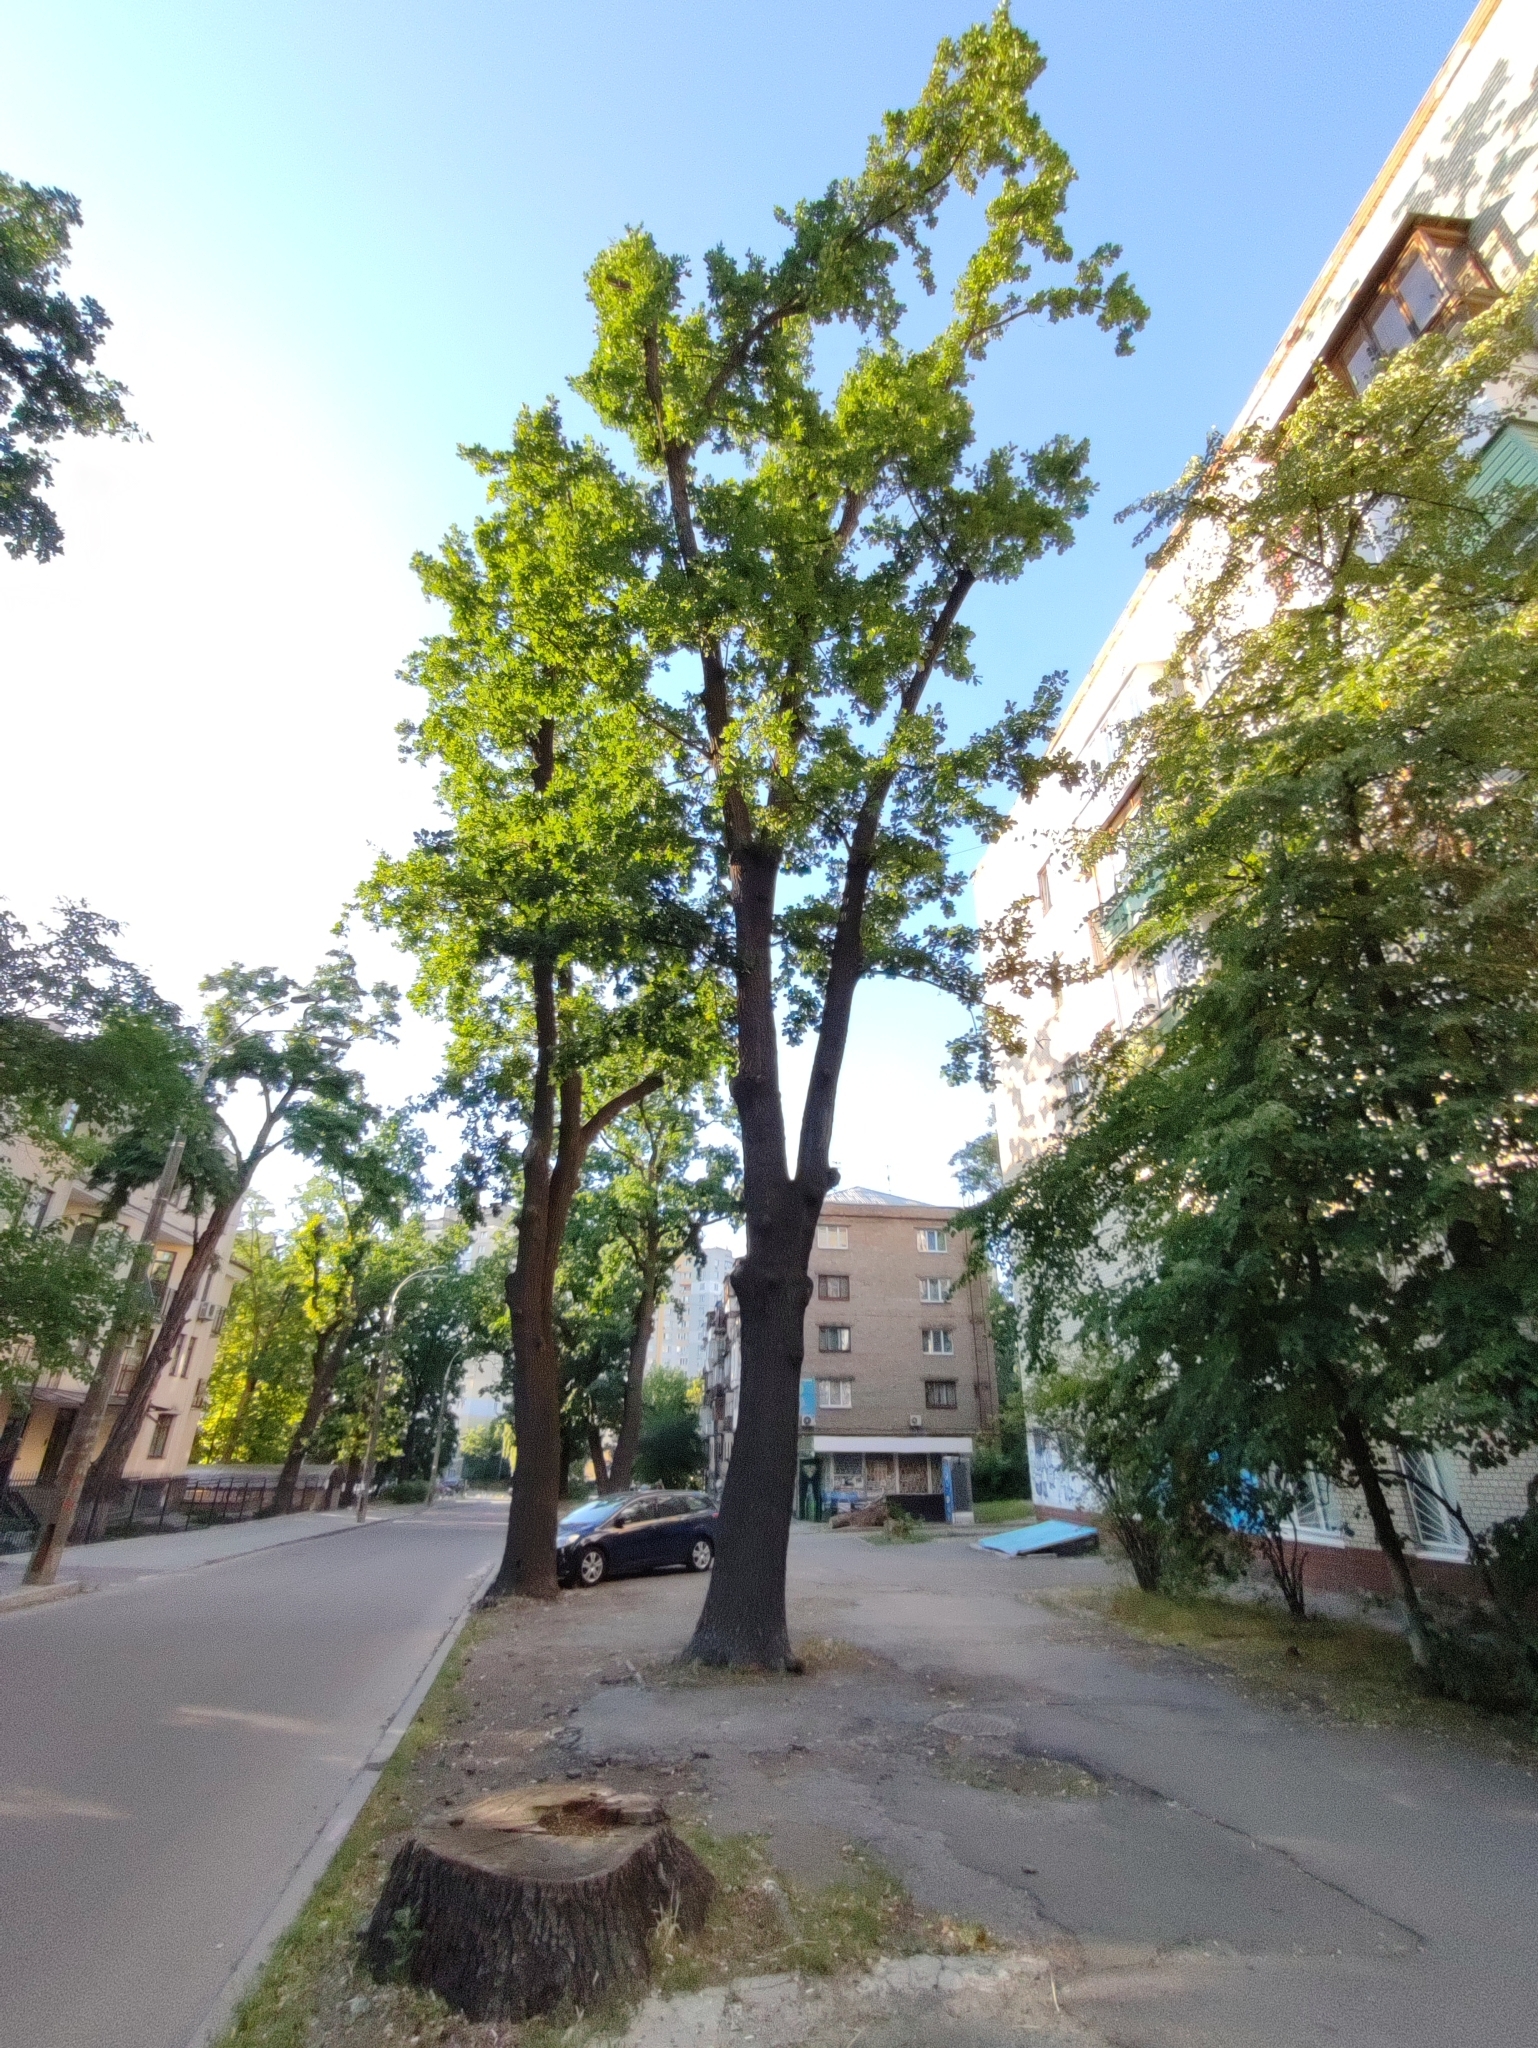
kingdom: Plantae
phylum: Tracheophyta
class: Magnoliopsida
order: Fagales
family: Fagaceae
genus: Quercus
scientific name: Quercus robur
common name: Pedunculate oak
